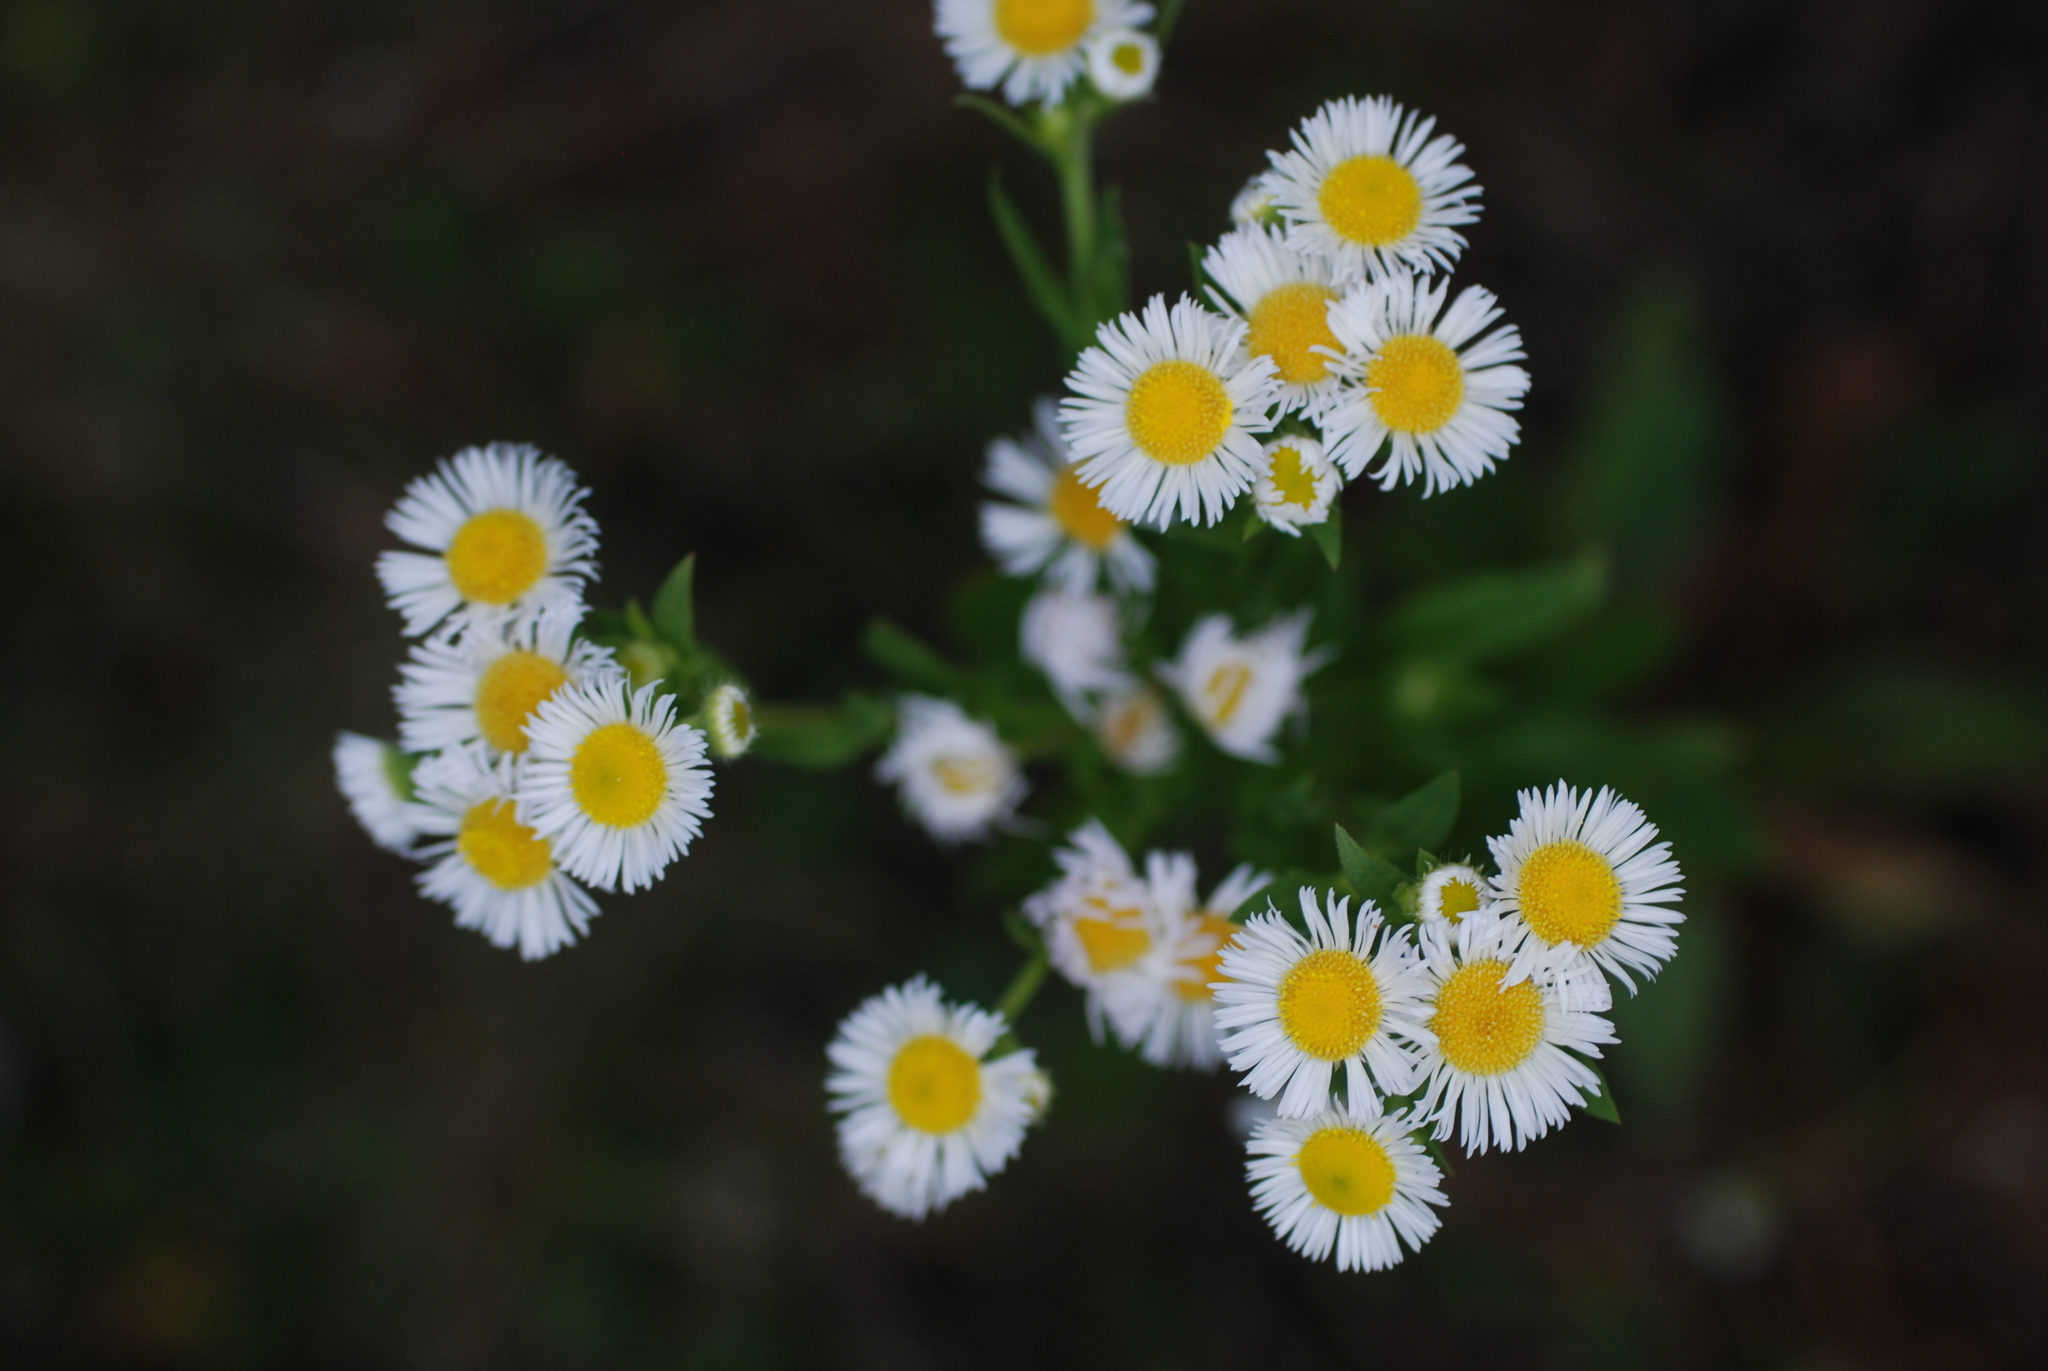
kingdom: Plantae
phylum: Tracheophyta
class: Magnoliopsida
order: Asterales
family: Asteraceae
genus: Erigeron
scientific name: Erigeron
